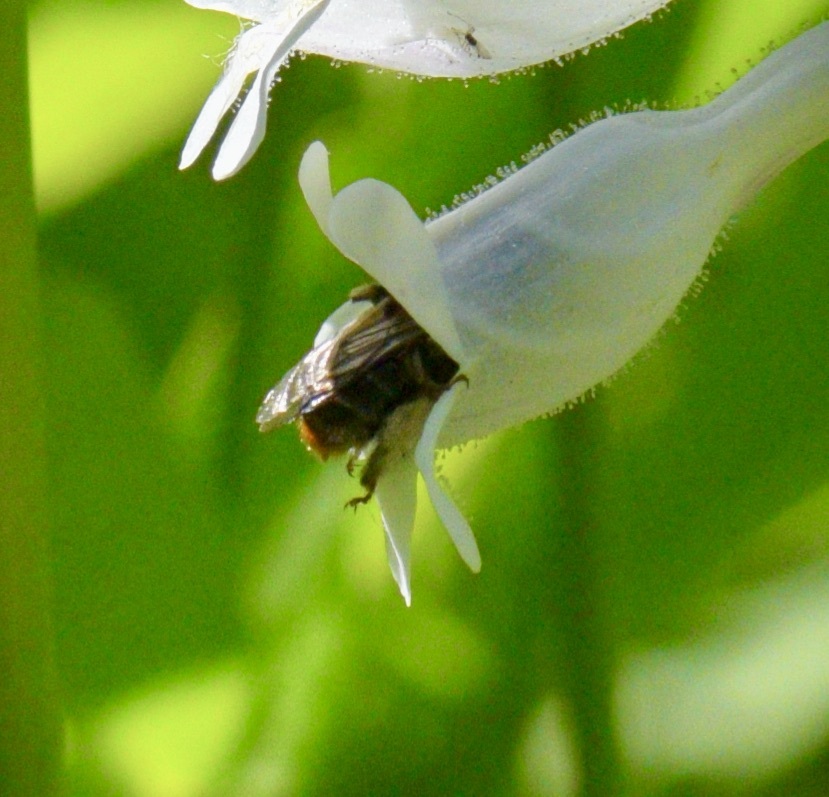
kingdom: Animalia
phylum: Arthropoda
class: Insecta
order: Hymenoptera
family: Apidae
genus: Anthophora
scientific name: Anthophora terminalis
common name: Orange-tipped wood-digger bee
